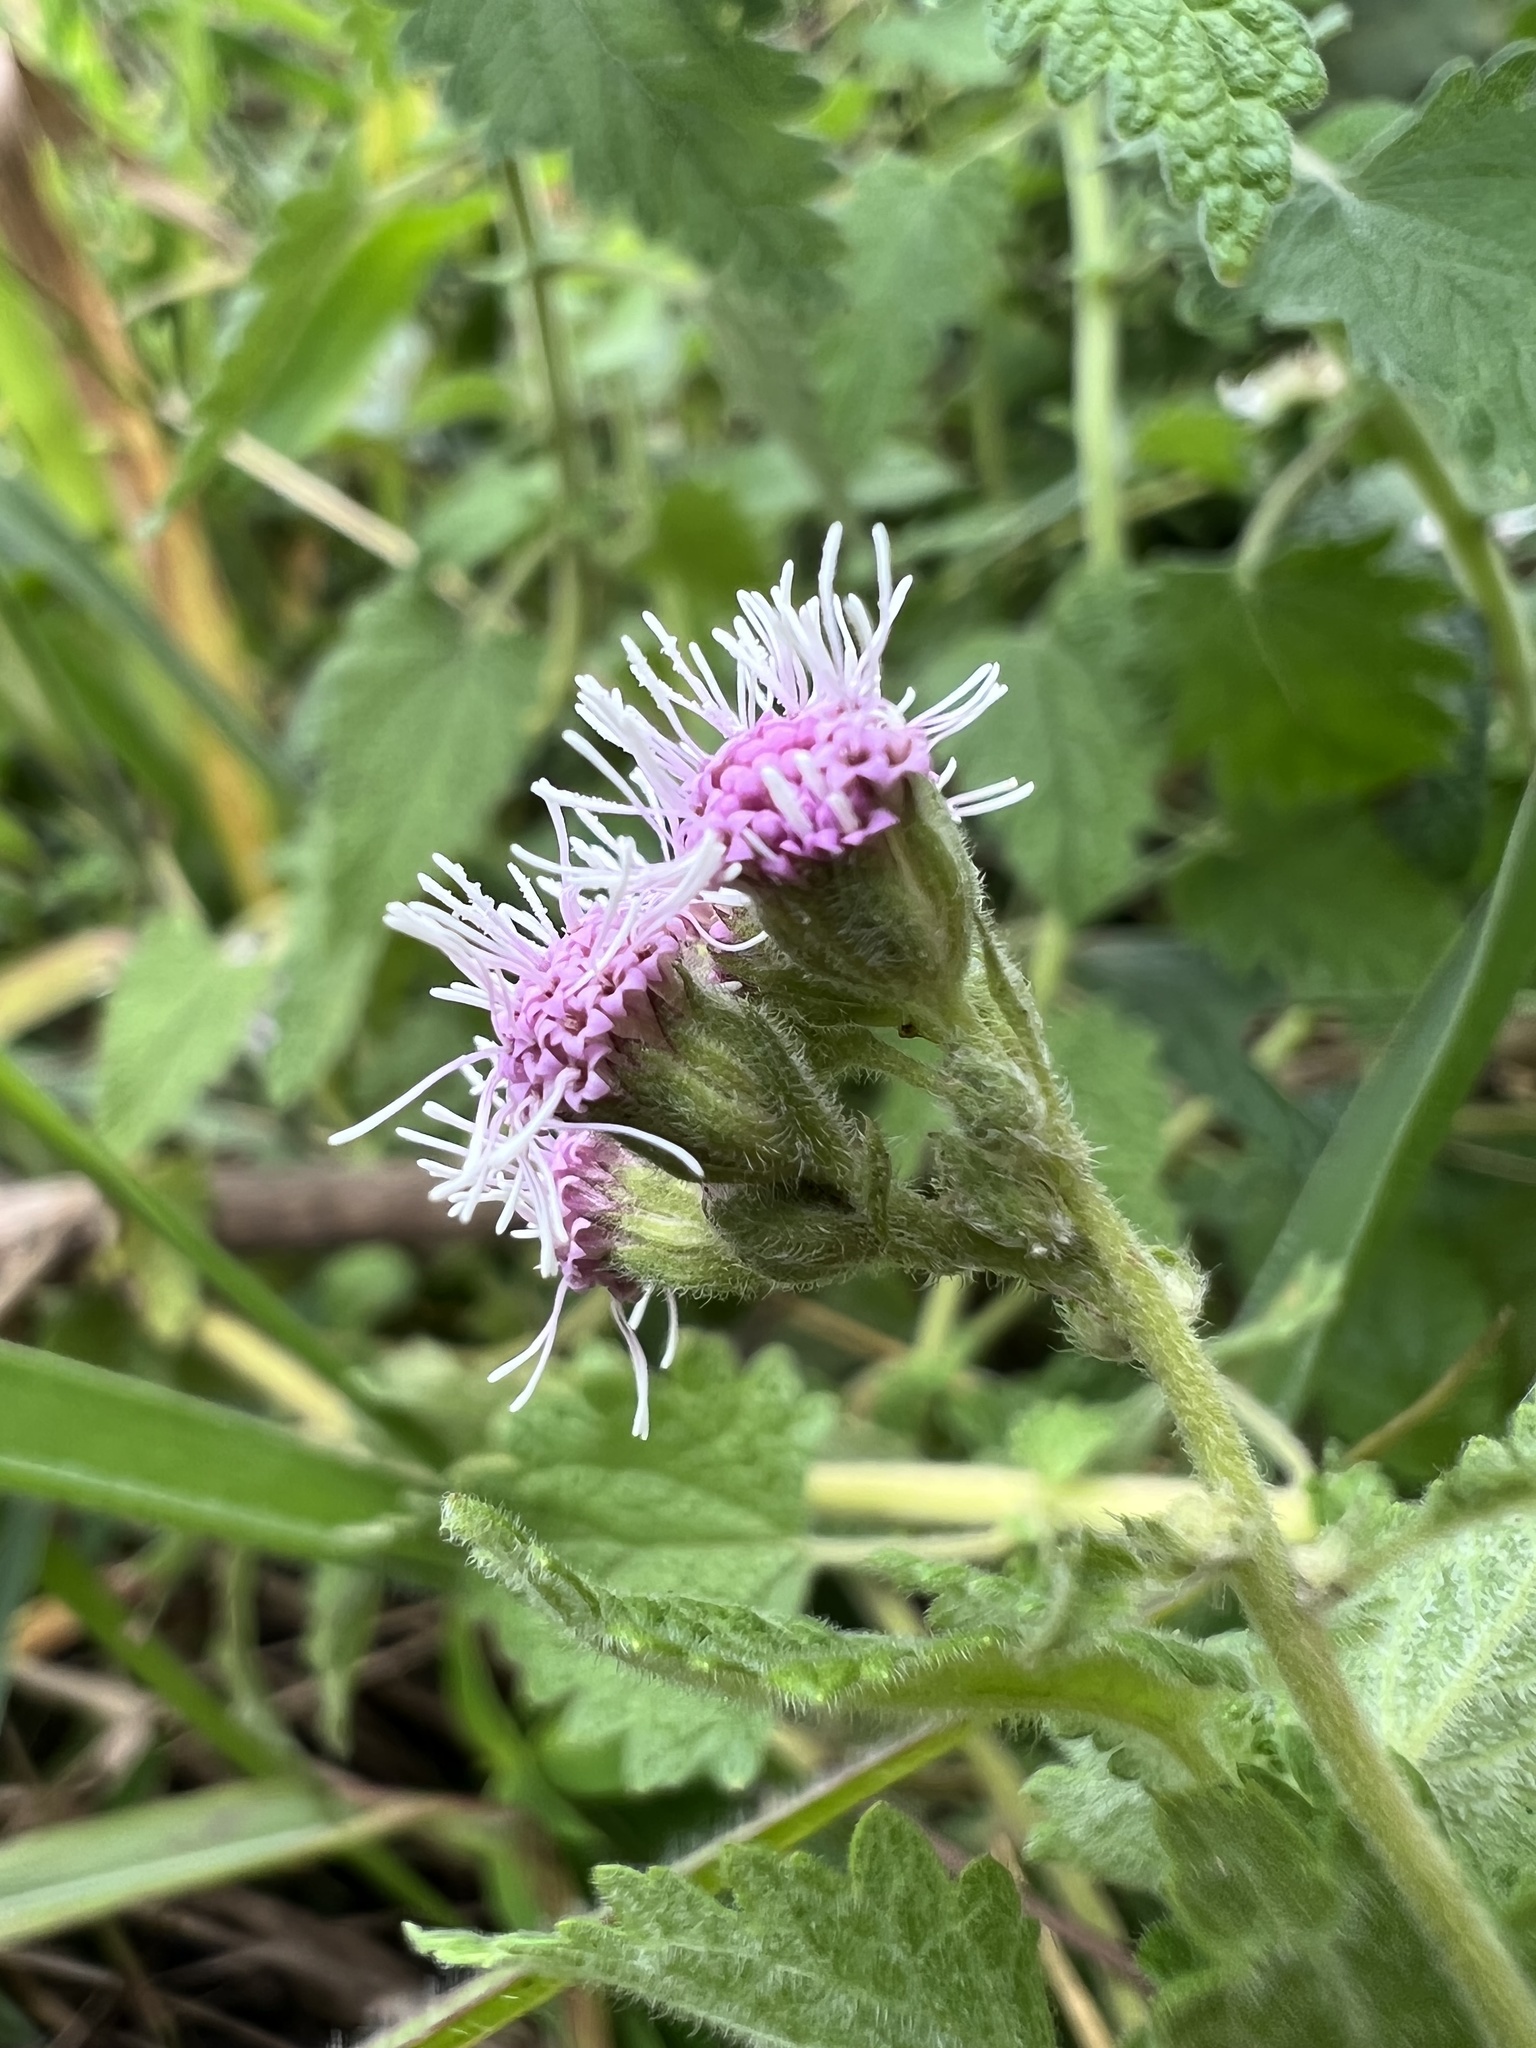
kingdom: Plantae
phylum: Tracheophyta
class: Magnoliopsida
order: Asterales
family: Asteraceae
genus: Lourteigia
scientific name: Lourteigia ballotifolia
